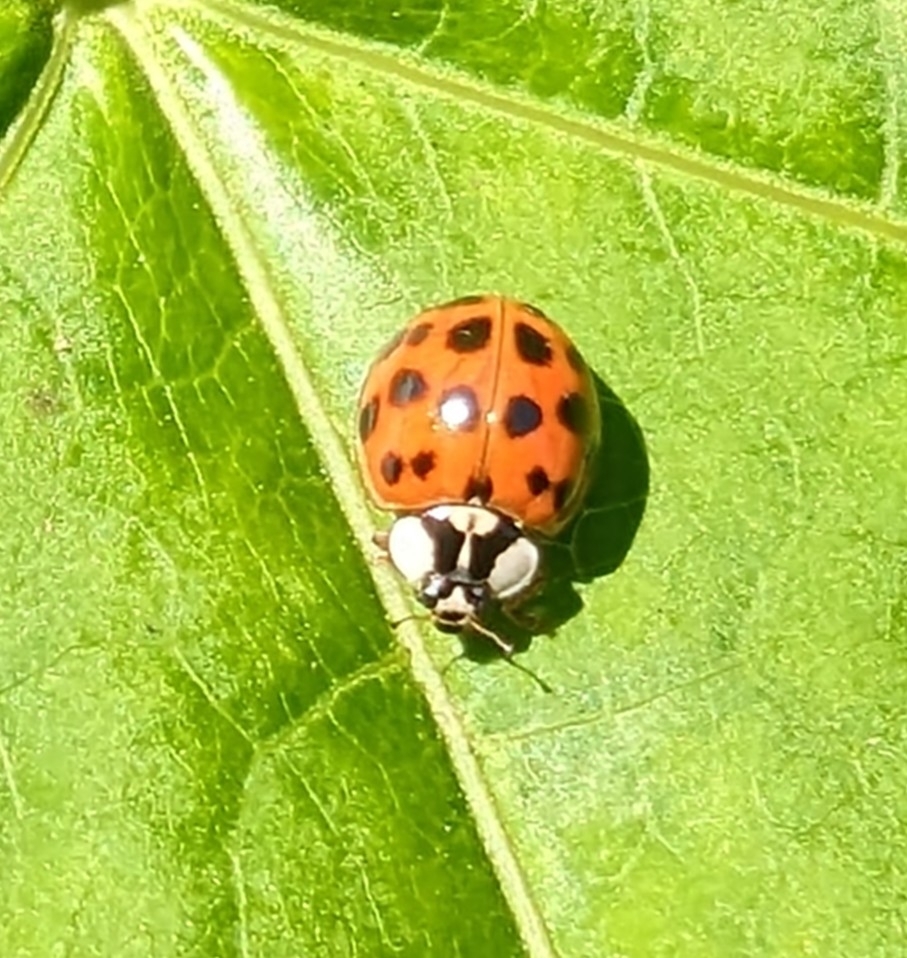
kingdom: Animalia
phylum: Arthropoda
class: Insecta
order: Coleoptera
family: Coccinellidae
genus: Harmonia
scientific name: Harmonia axyridis
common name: Harlequin ladybird
